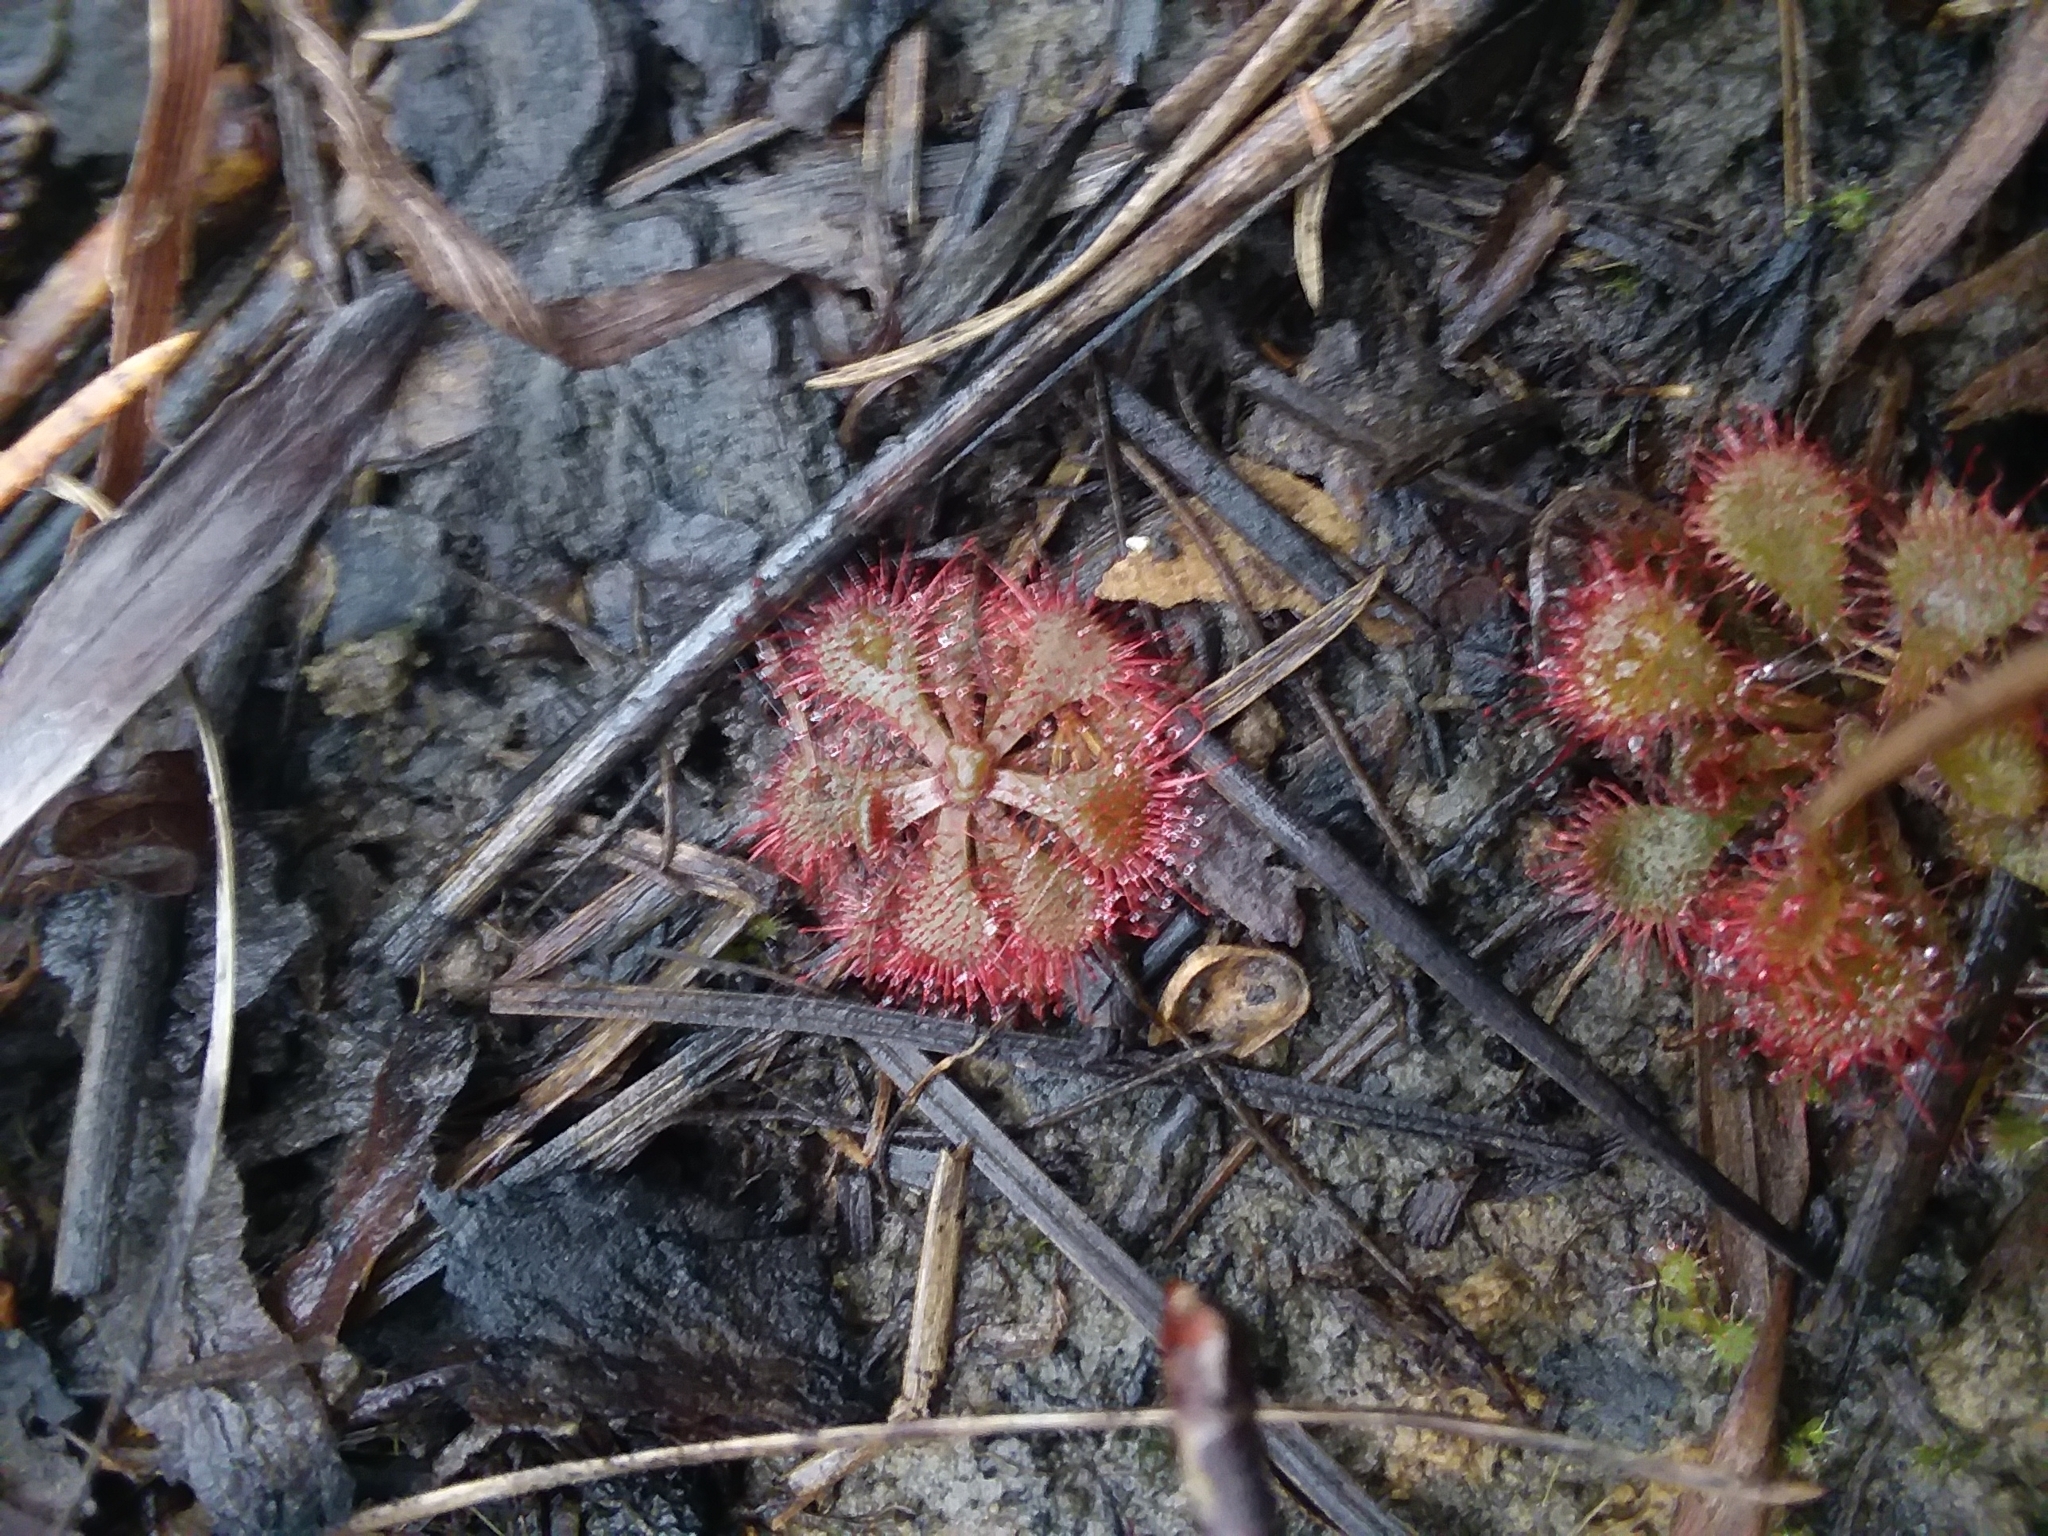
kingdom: Plantae
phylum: Tracheophyta
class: Magnoliopsida
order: Caryophyllales
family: Droseraceae
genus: Drosera
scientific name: Drosera brevifolia
